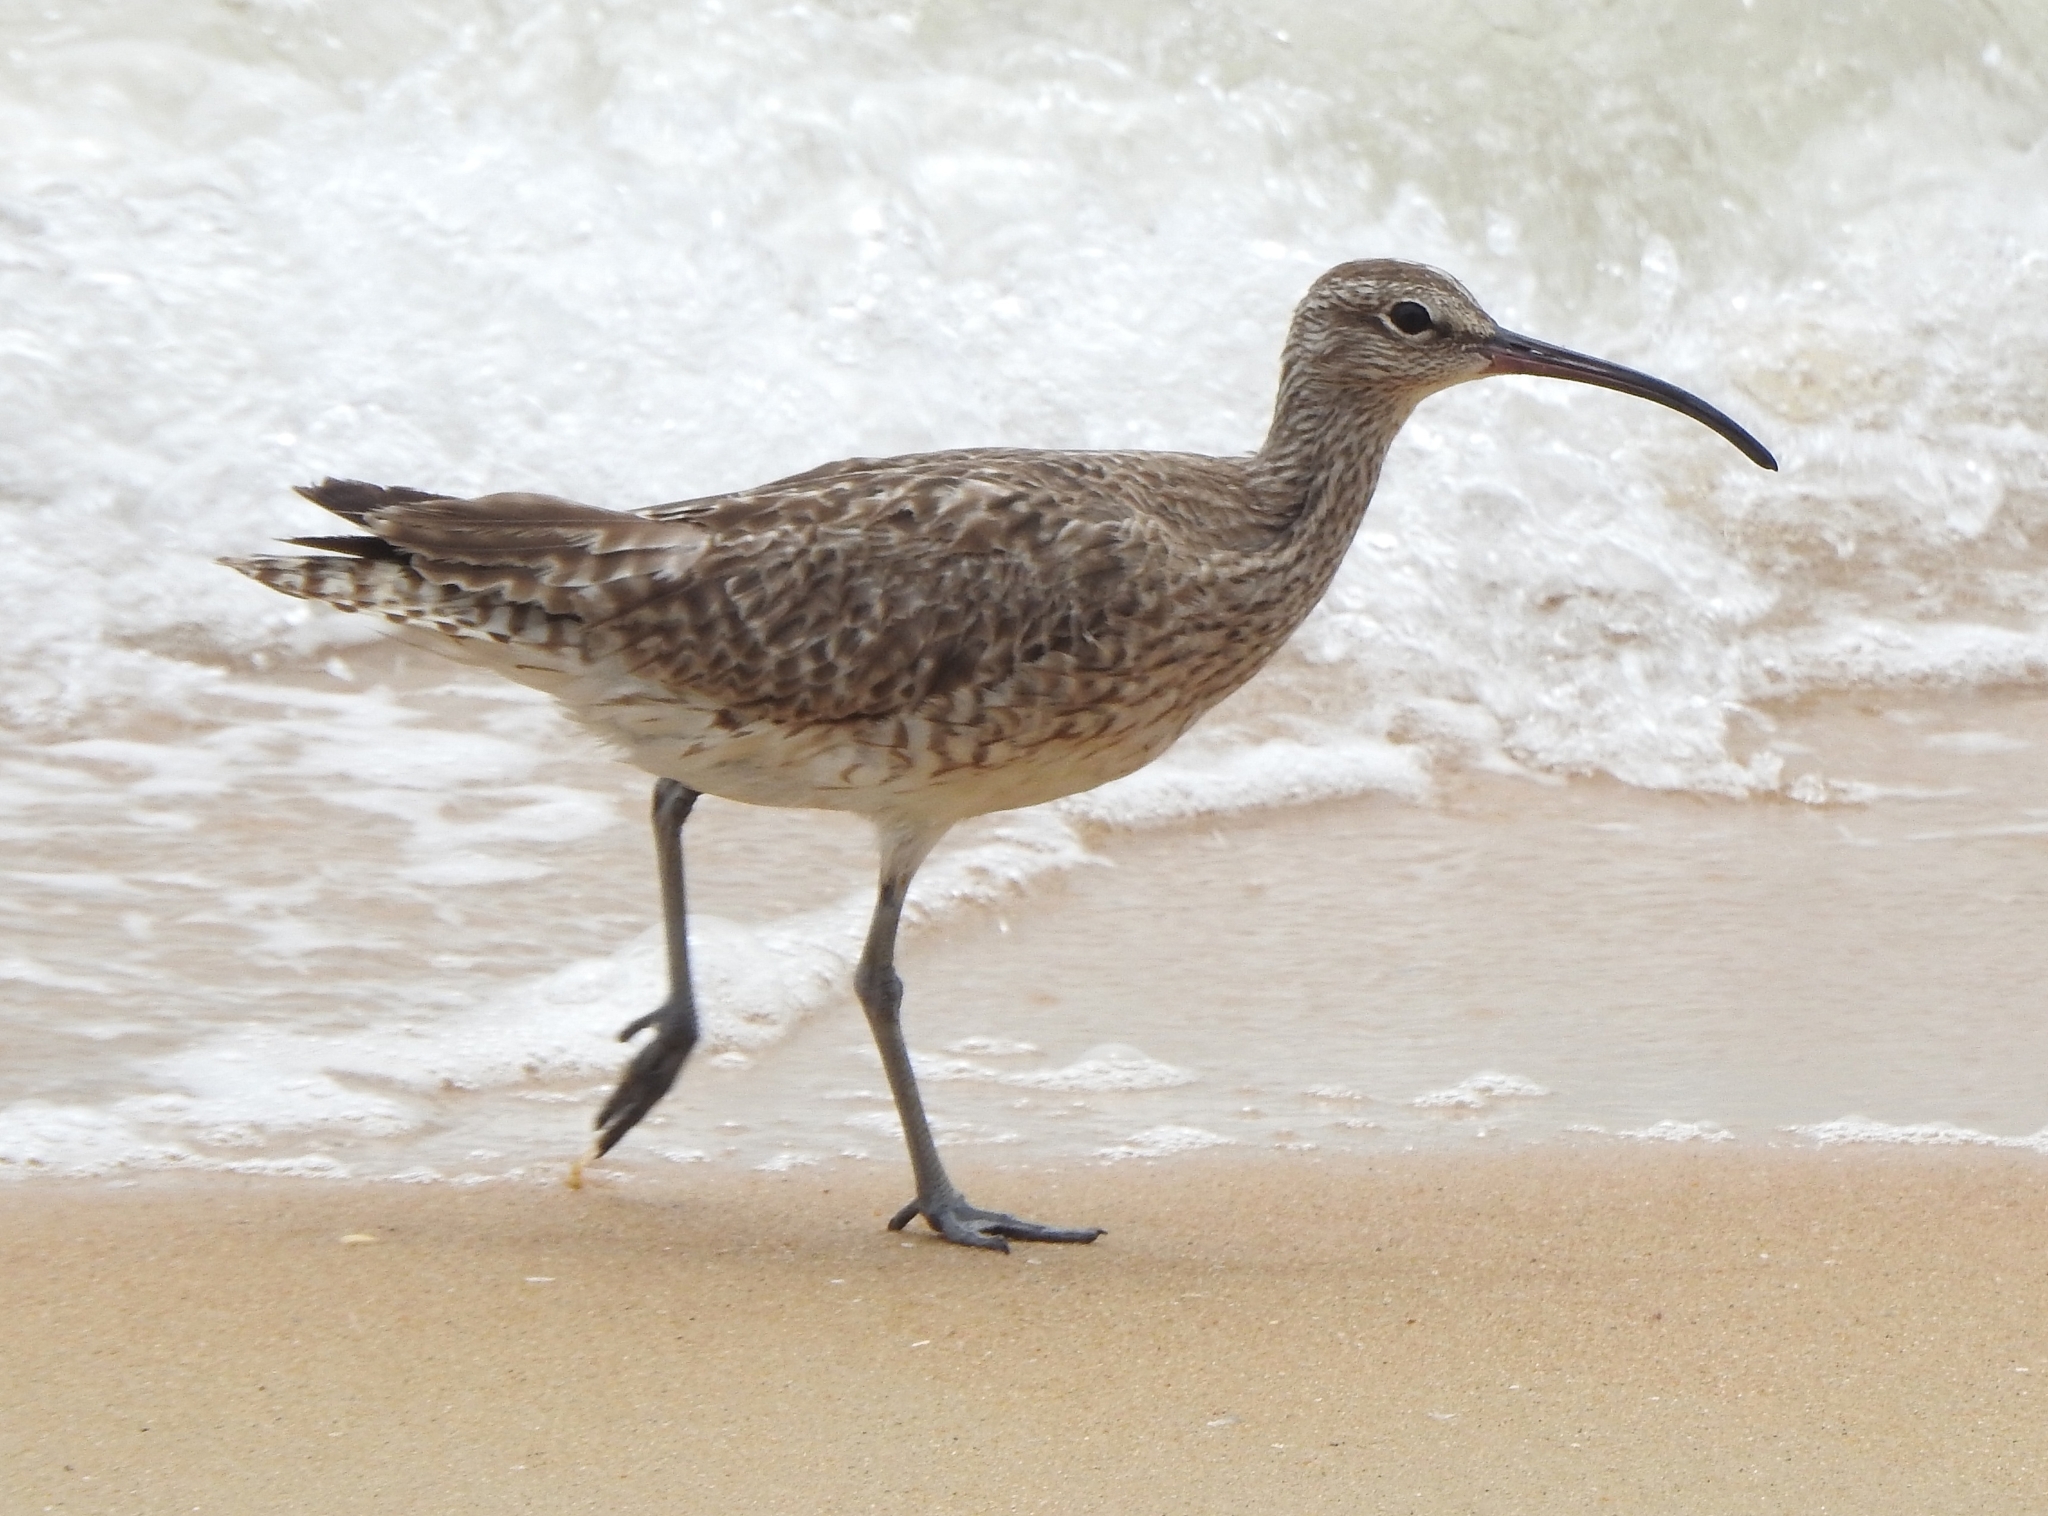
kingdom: Animalia
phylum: Chordata
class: Aves
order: Charadriiformes
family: Scolopacidae
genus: Numenius
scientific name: Numenius phaeopus
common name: Whimbrel
